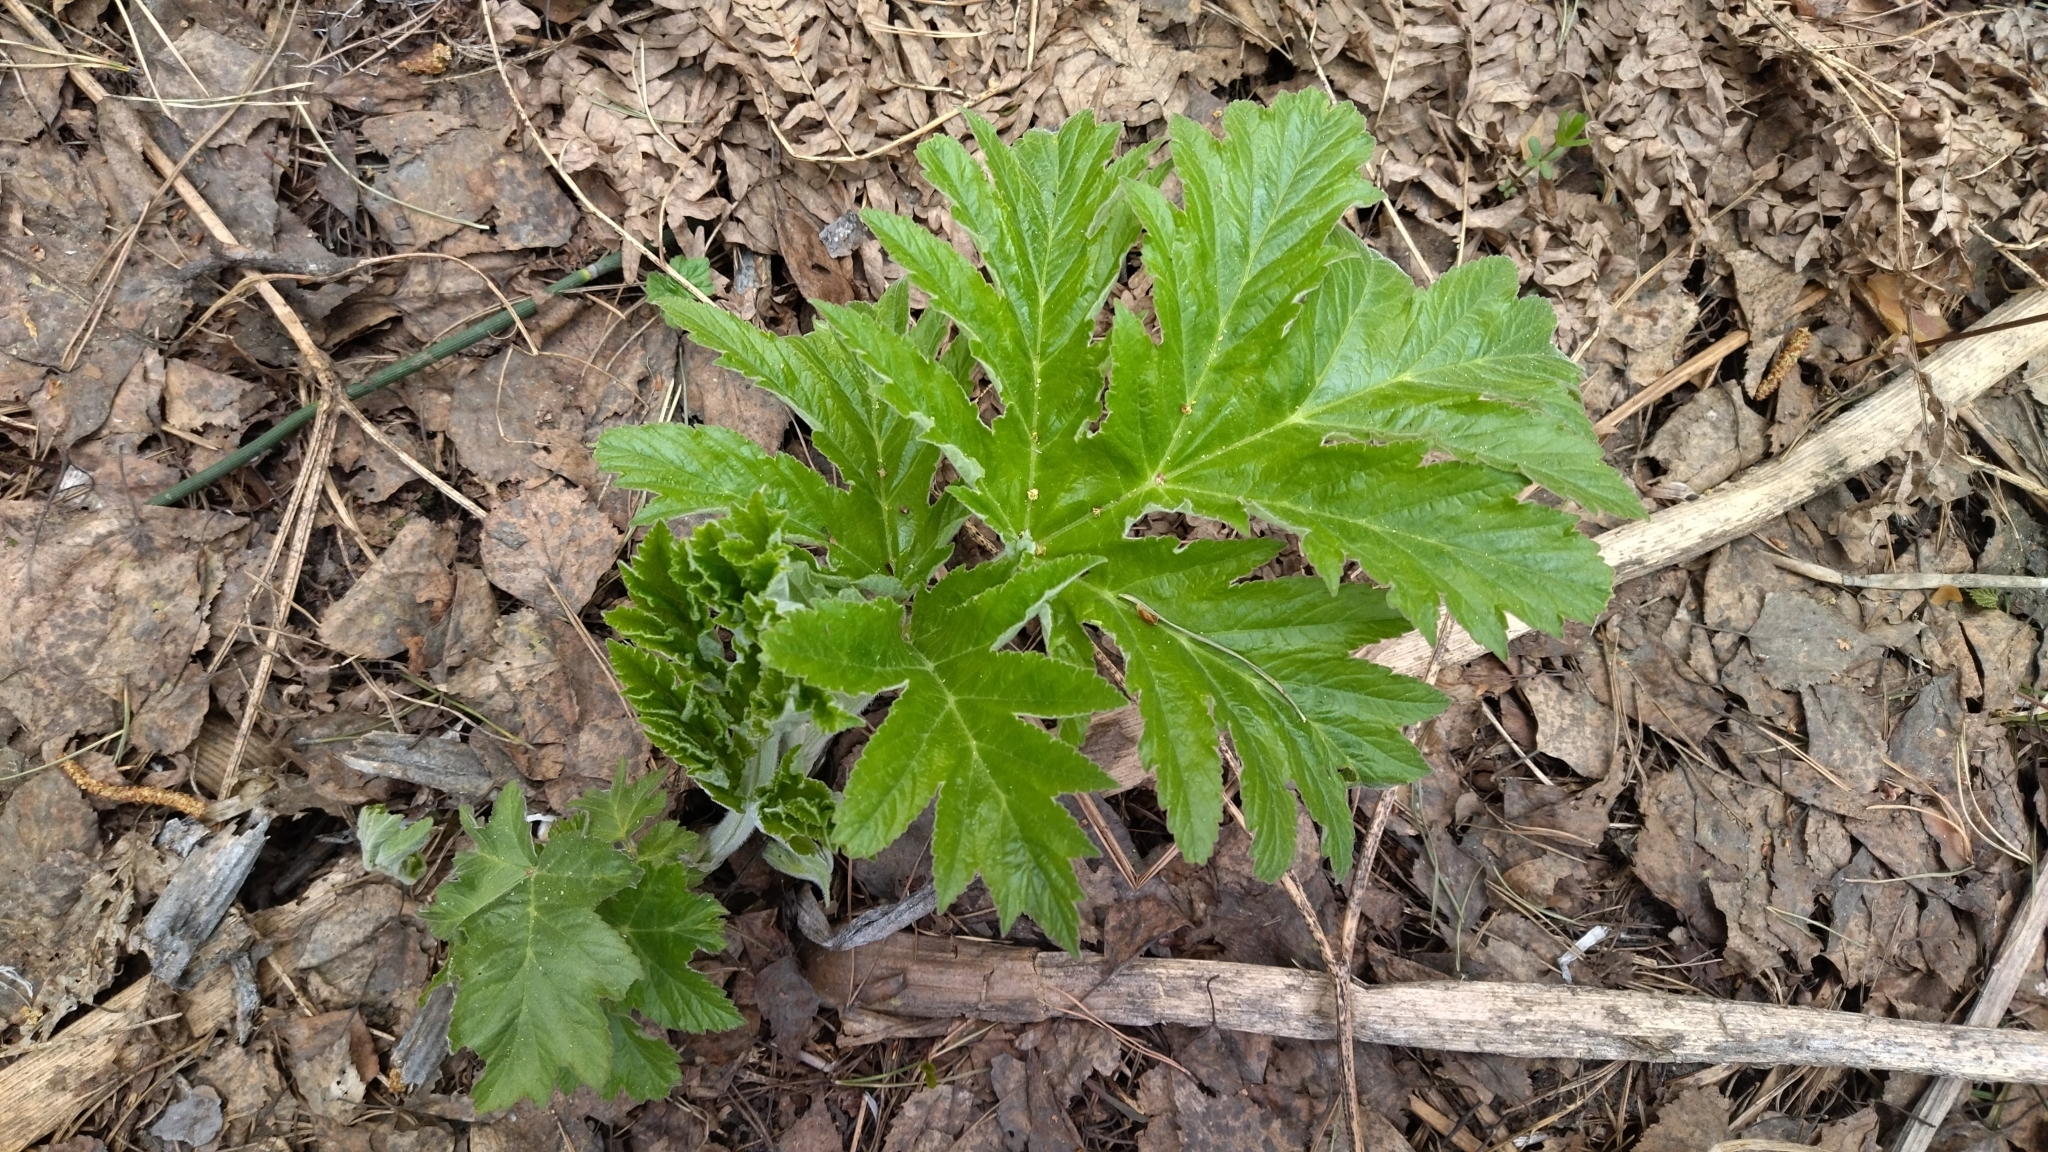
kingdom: Plantae
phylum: Tracheophyta
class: Magnoliopsida
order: Apiales
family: Apiaceae
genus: Heracleum
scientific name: Heracleum dissectum
